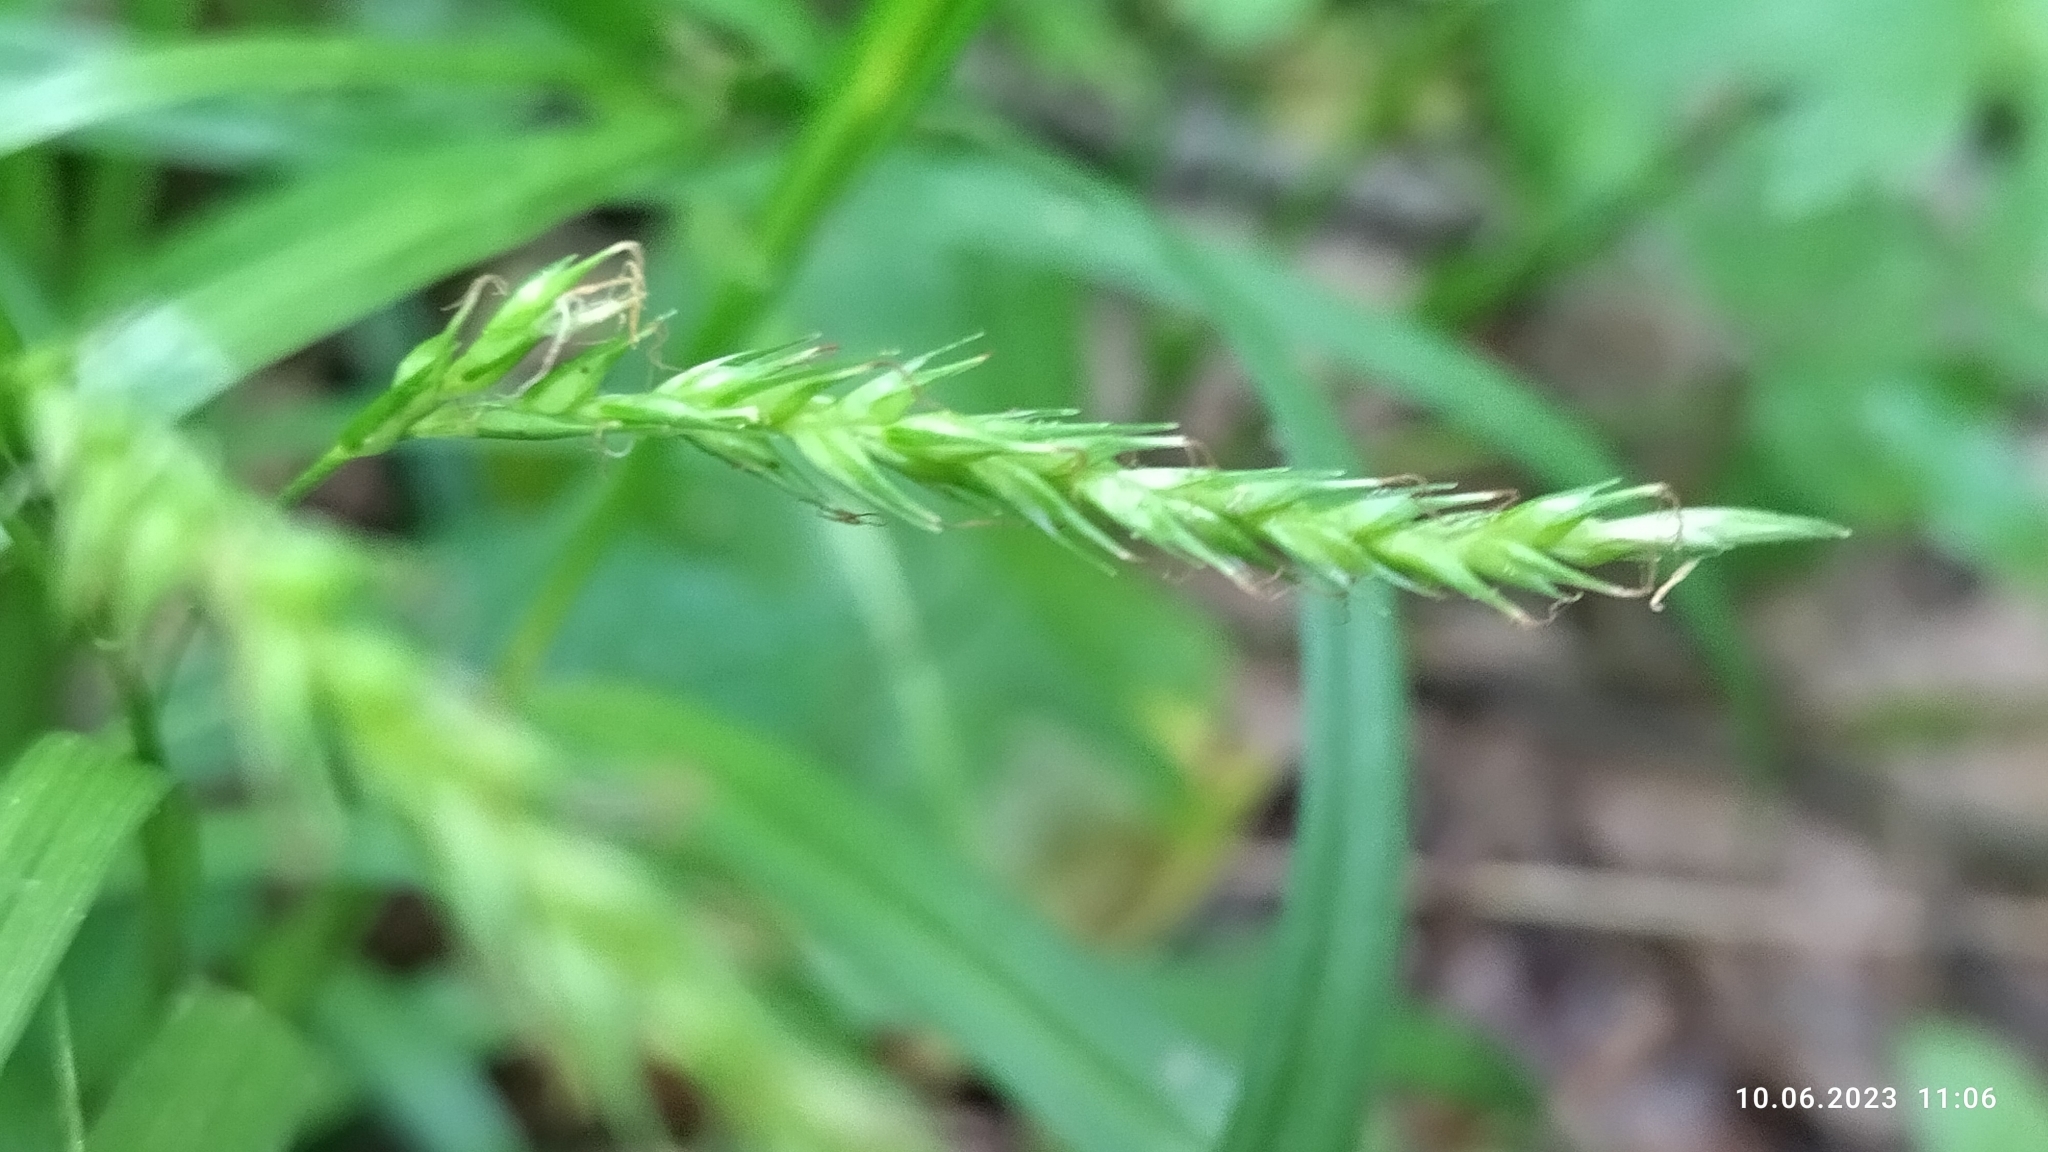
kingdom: Plantae
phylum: Tracheophyta
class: Liliopsida
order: Poales
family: Cyperaceae
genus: Carex
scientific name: Carex sylvatica
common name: Wood-sedge
